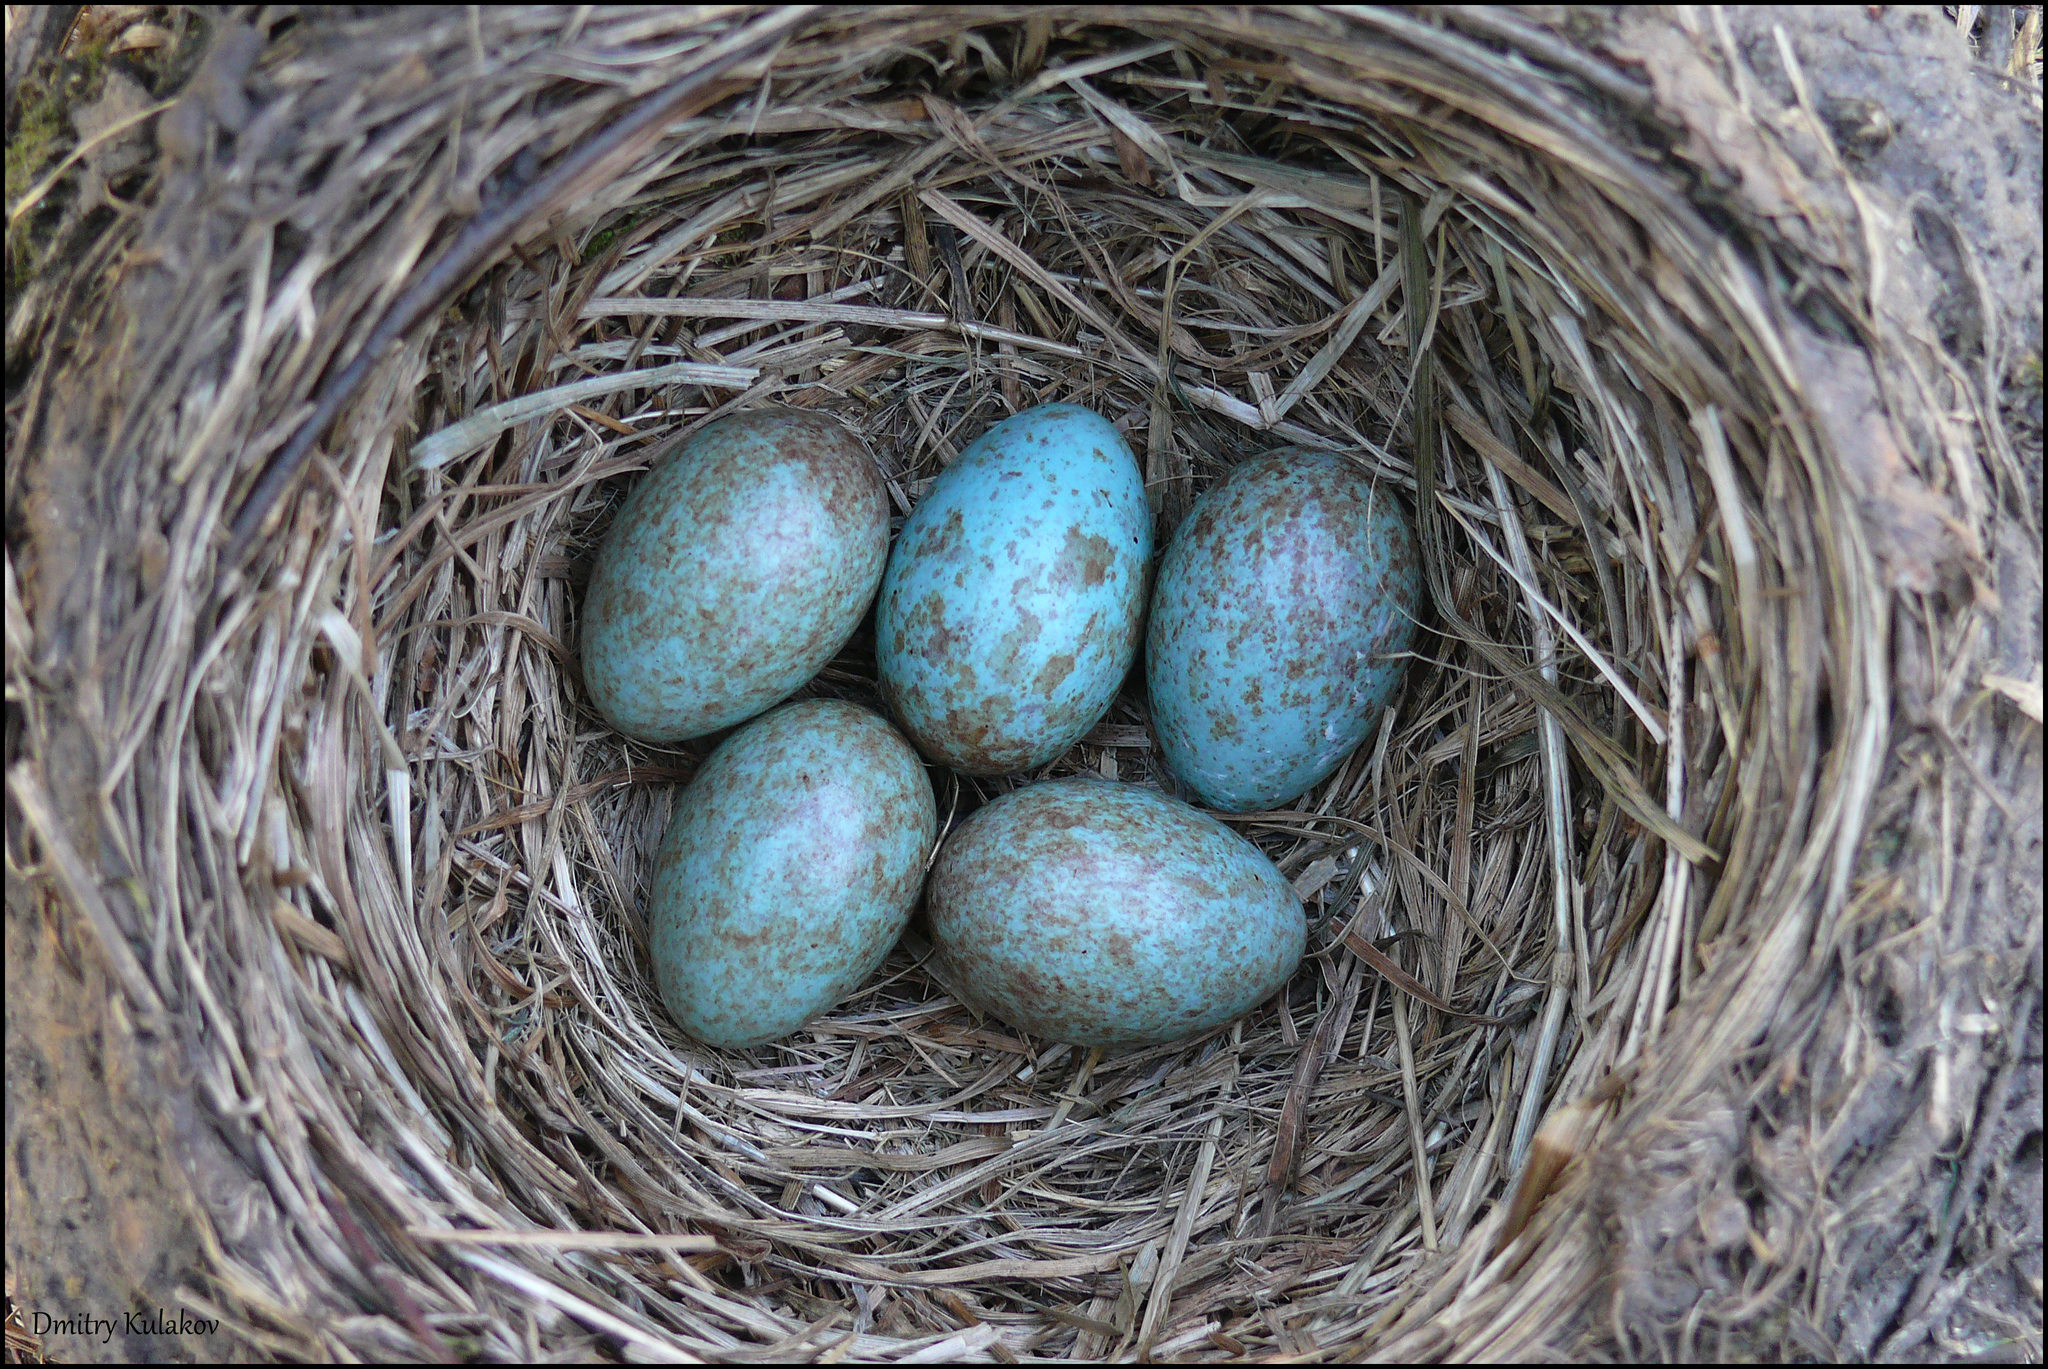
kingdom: Animalia
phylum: Chordata
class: Aves
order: Passeriformes
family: Turdidae
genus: Turdus
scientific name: Turdus pilaris
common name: Fieldfare
